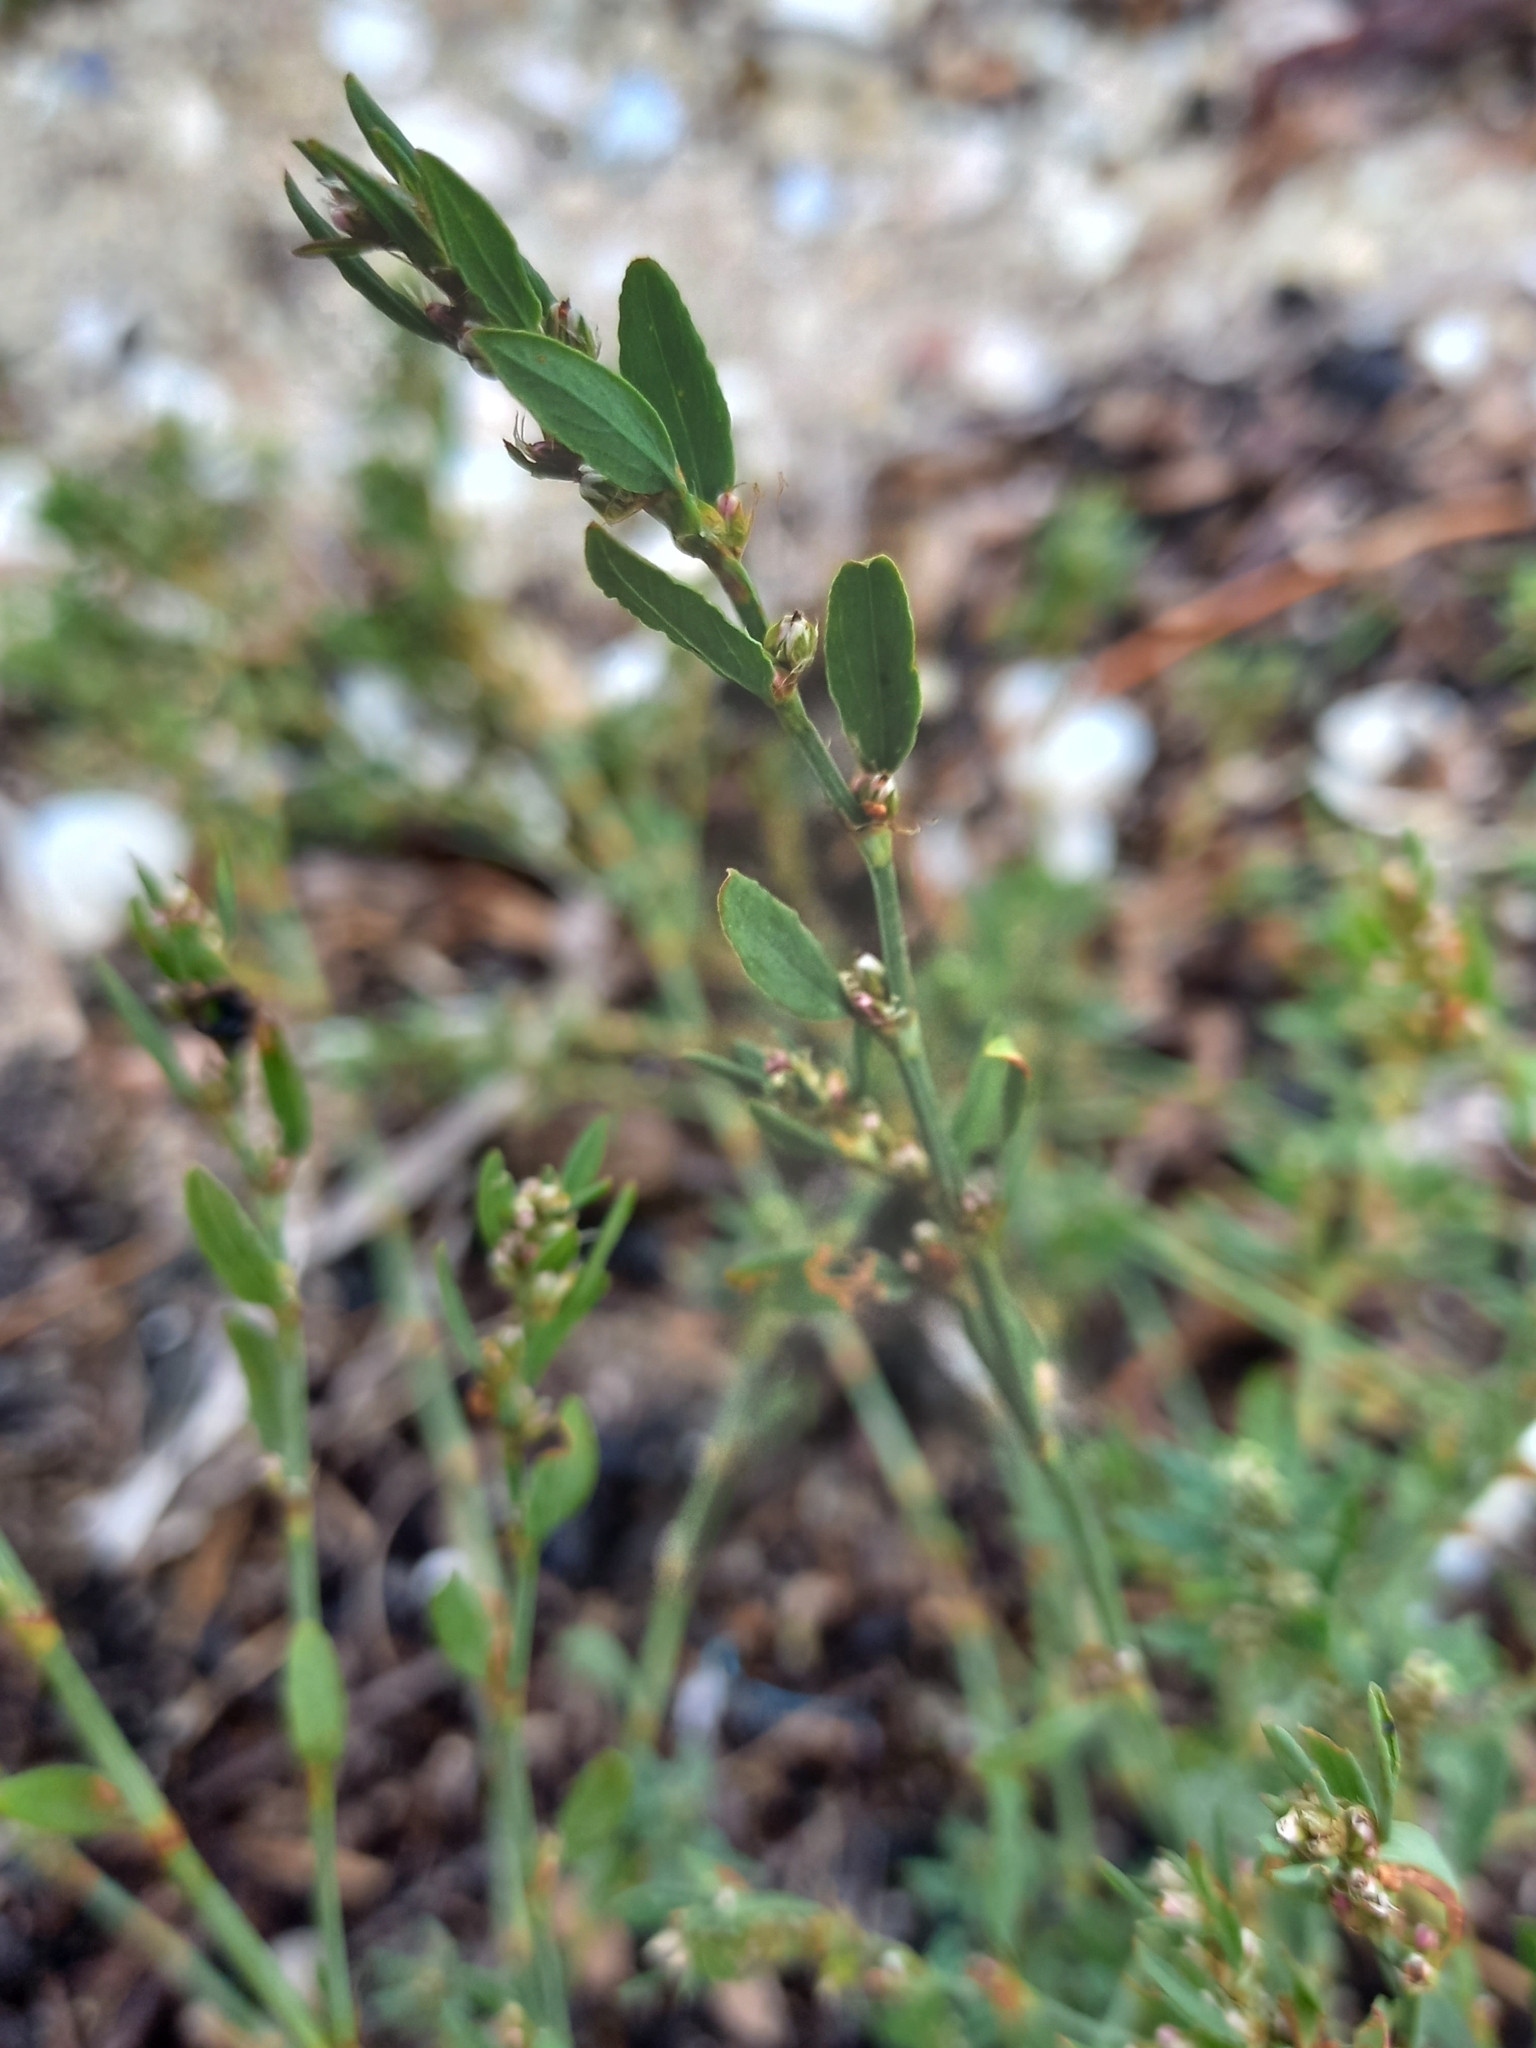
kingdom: Plantae
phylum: Tracheophyta
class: Magnoliopsida
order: Caryophyllales
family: Polygonaceae
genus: Polygonum
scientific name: Polygonum aviculare
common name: Prostrate knotweed
